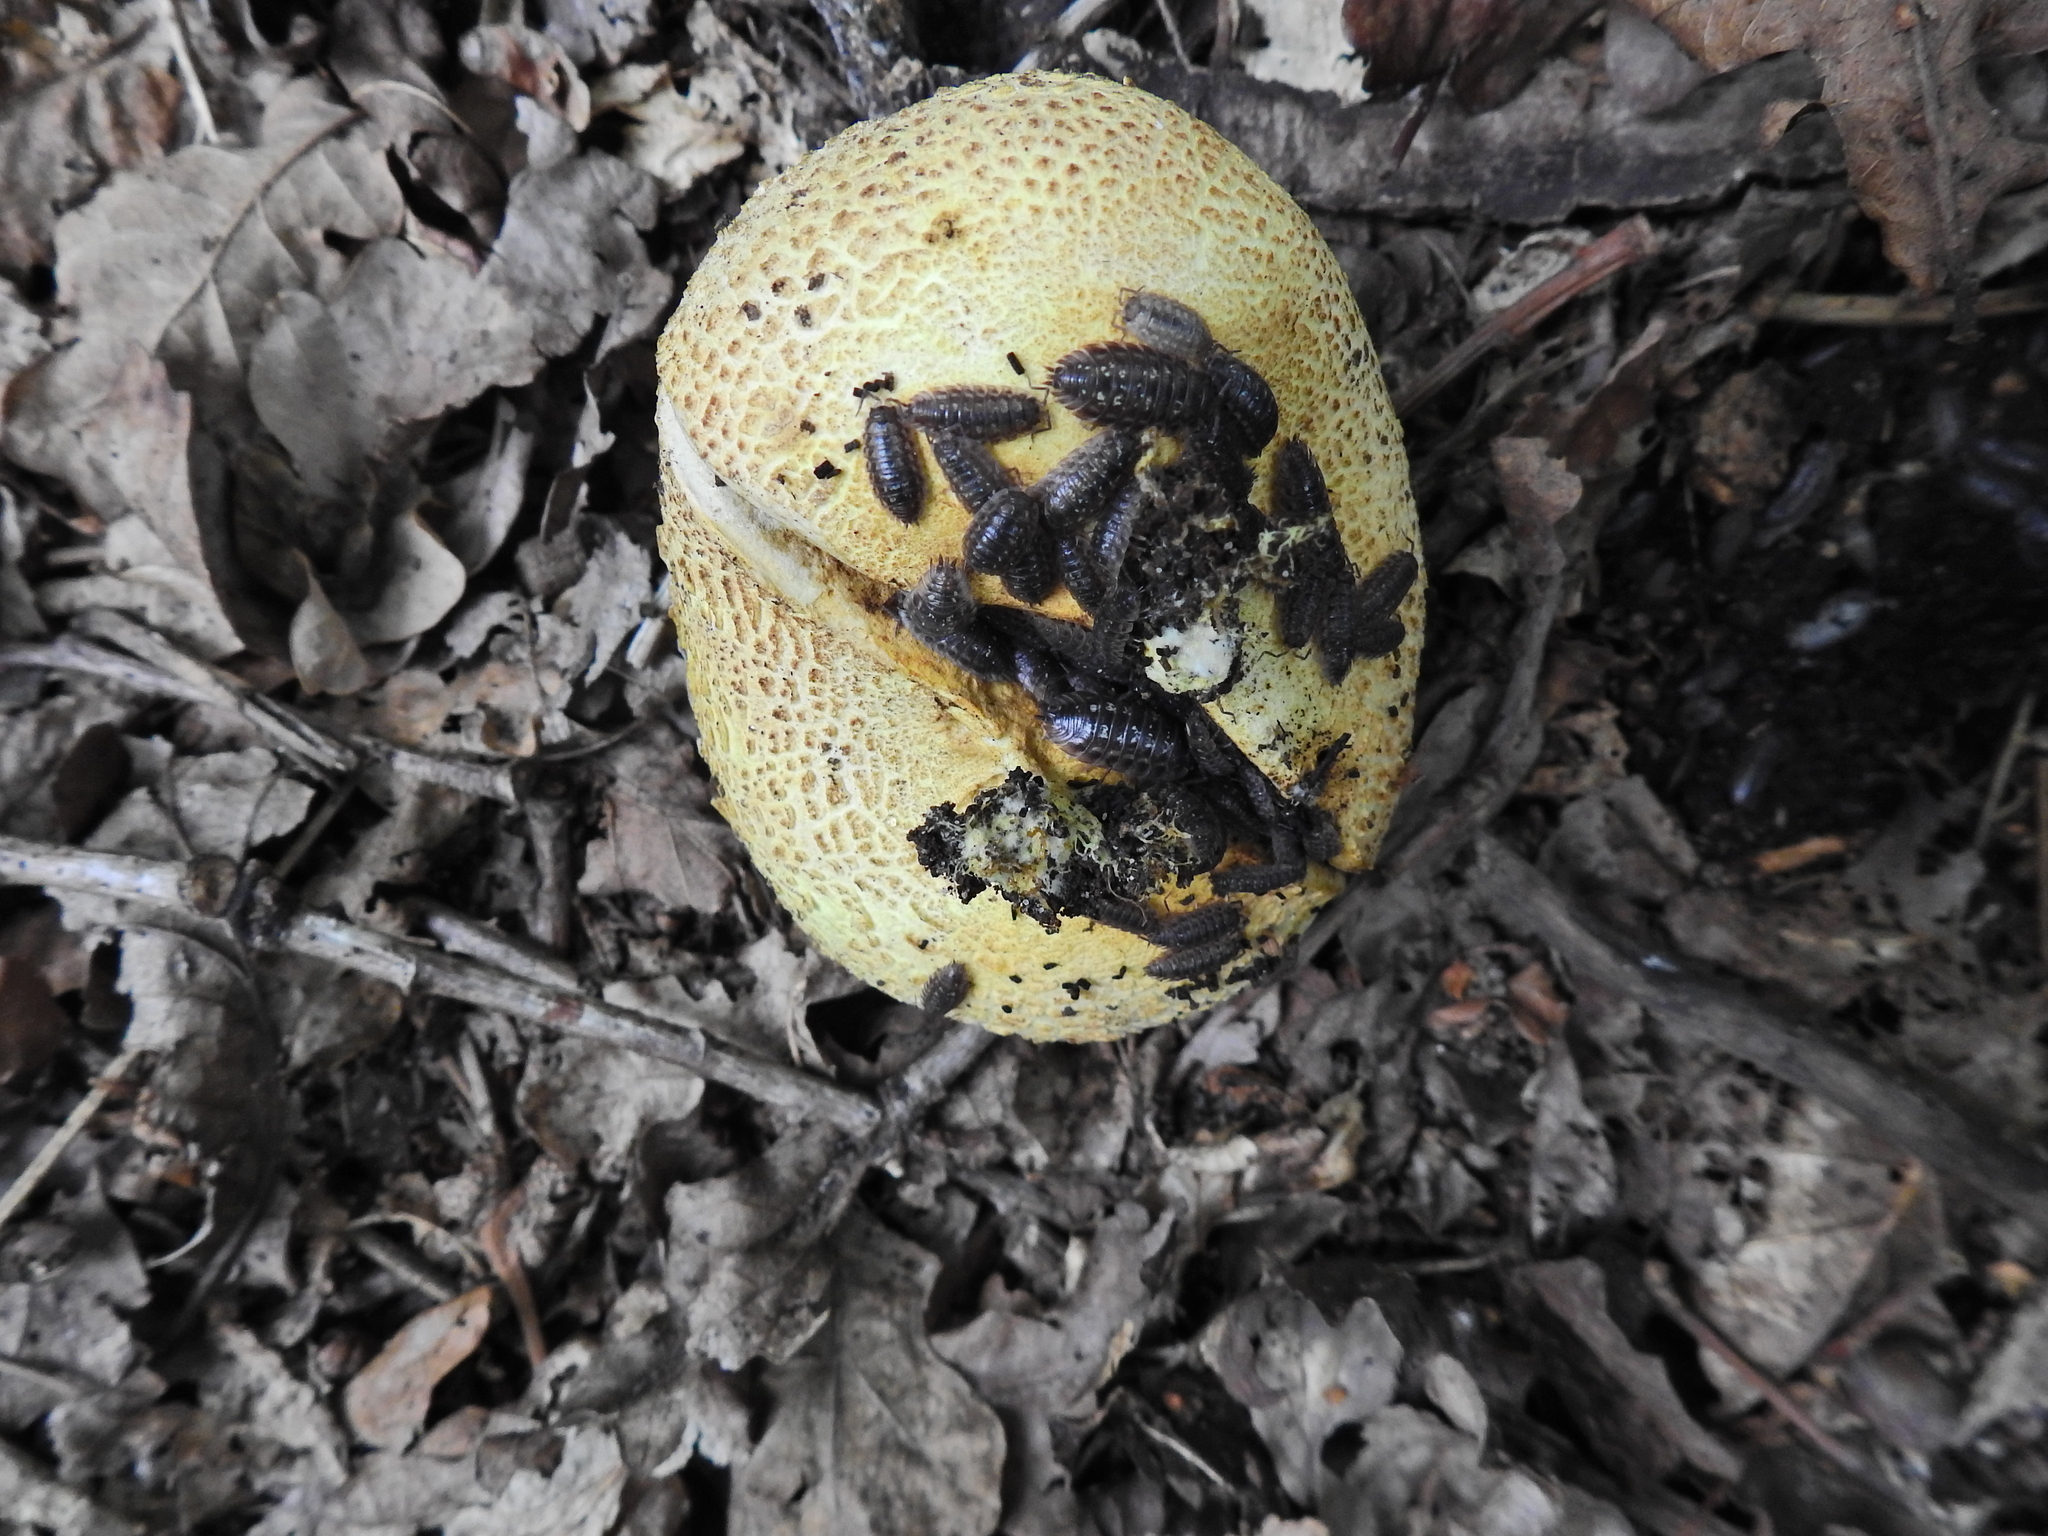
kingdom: Animalia
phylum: Arthropoda
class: Malacostraca
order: Isopoda
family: Oniscidae
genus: Oniscus
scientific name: Oniscus asellus
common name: Common shiny woodlouse
